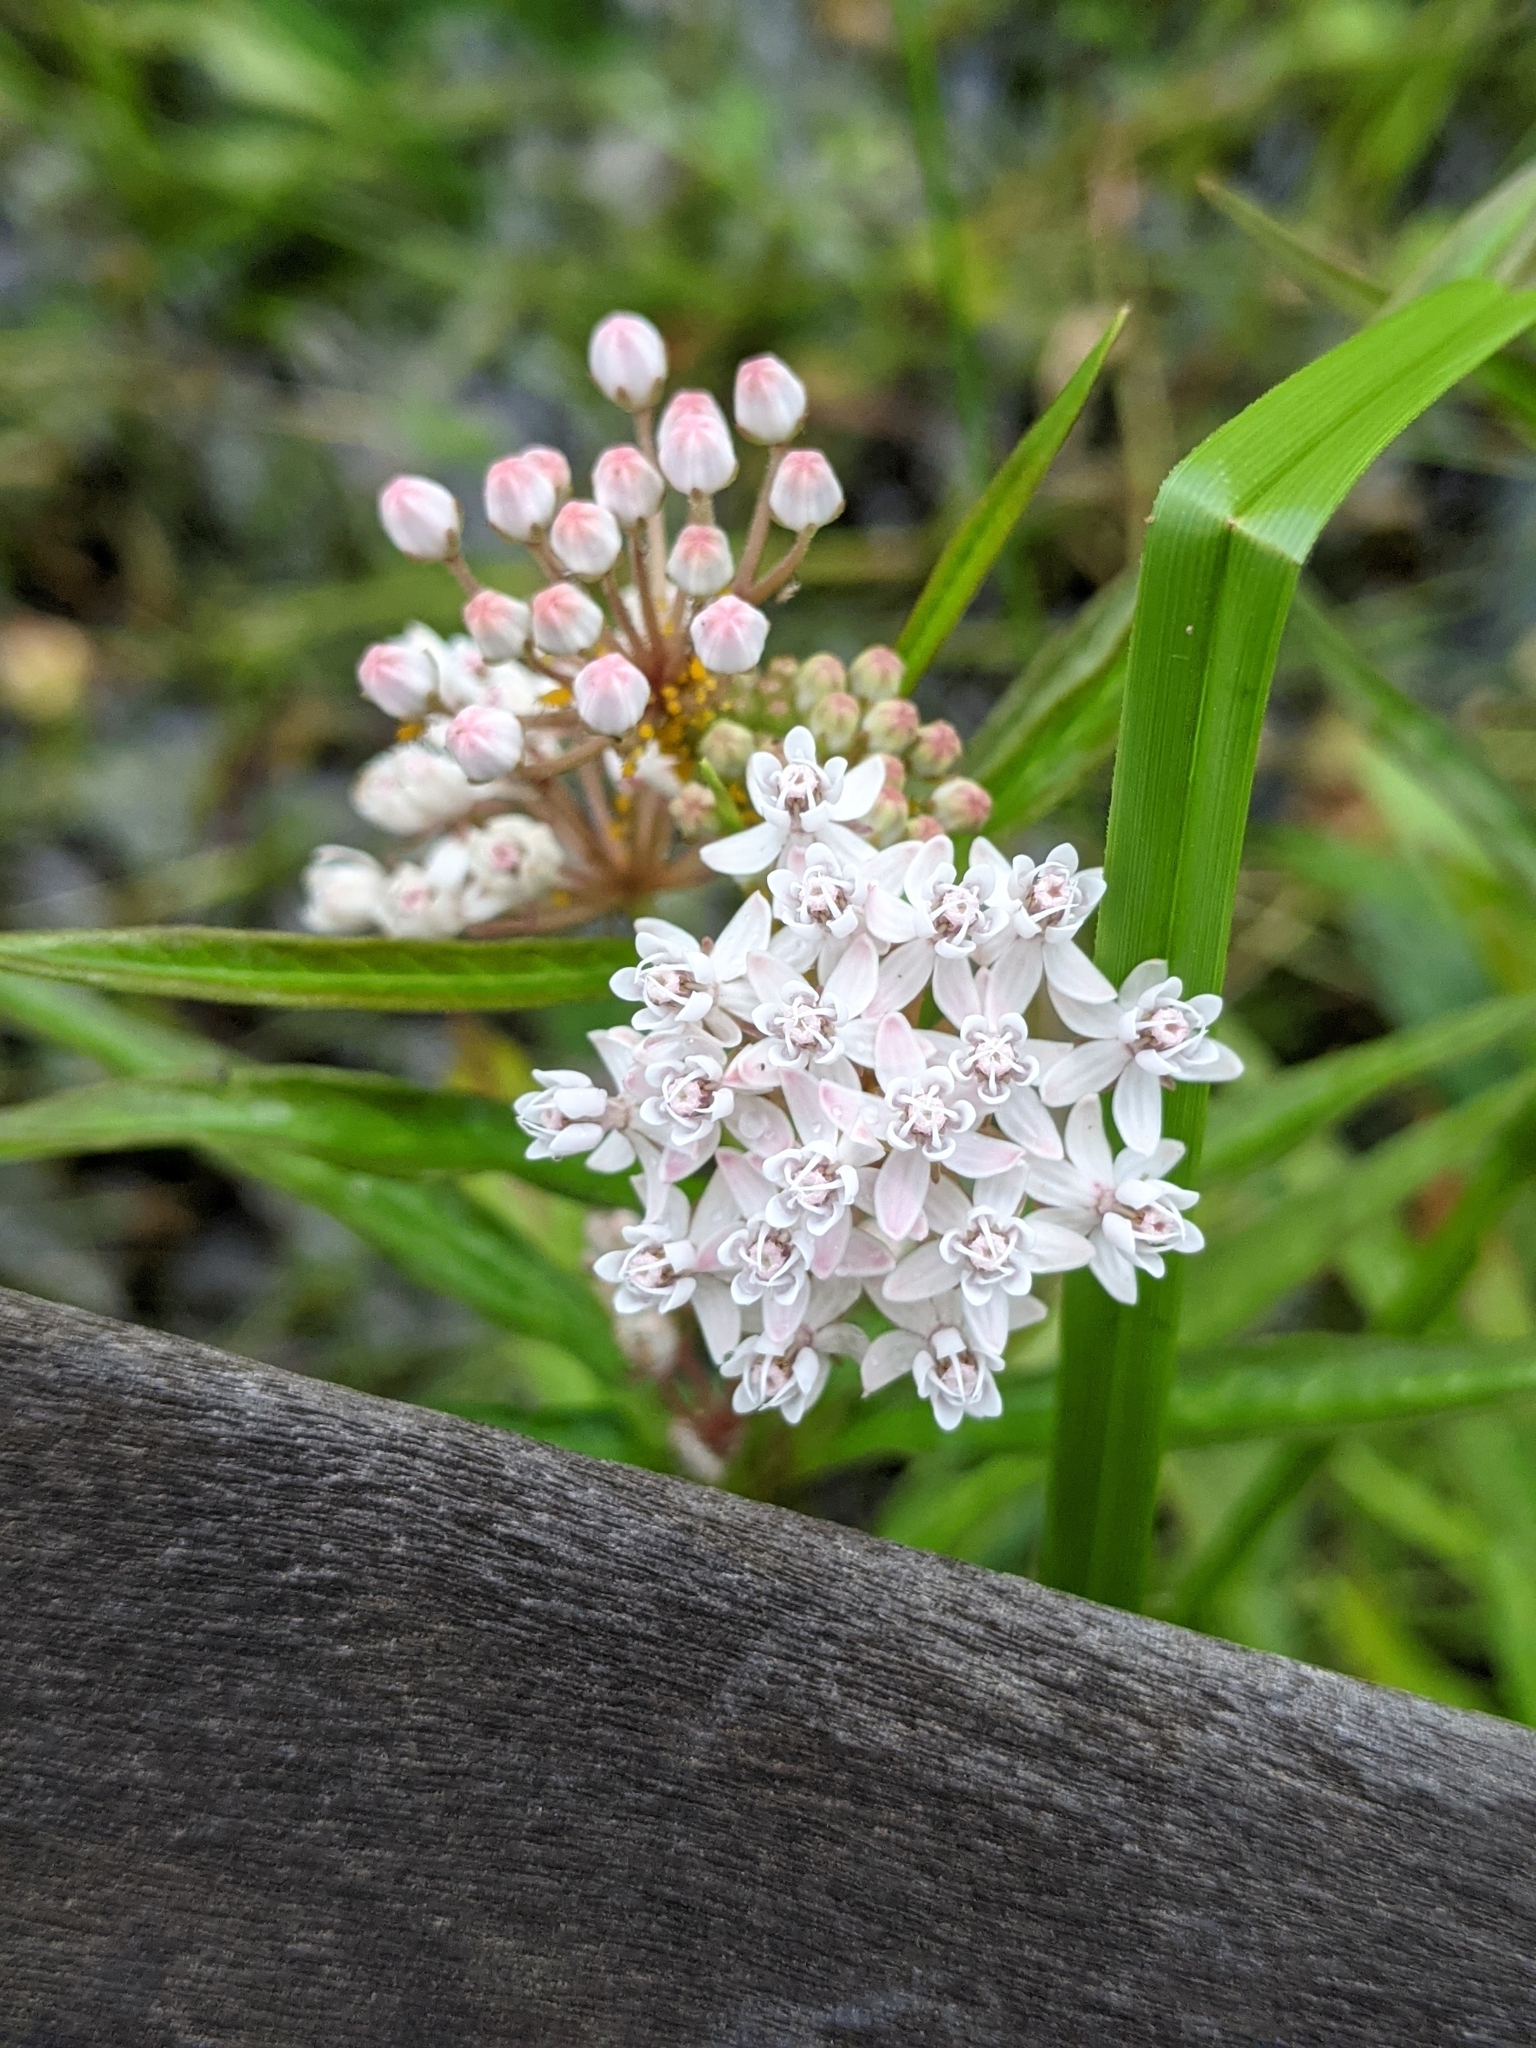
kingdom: Plantae
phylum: Tracheophyta
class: Magnoliopsida
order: Gentianales
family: Apocynaceae
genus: Asclepias
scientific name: Asclepias perennis
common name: Smooth-seed milkweed
